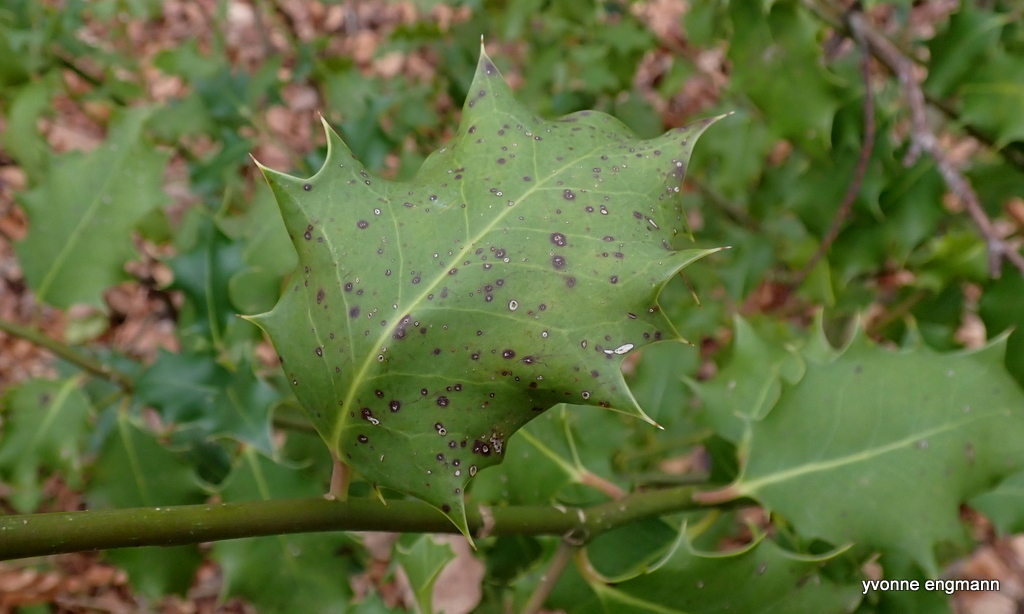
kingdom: Plantae
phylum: Tracheophyta
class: Magnoliopsida
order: Aquifoliales
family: Aquifoliaceae
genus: Ilex
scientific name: Ilex aquifolium
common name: English holly
